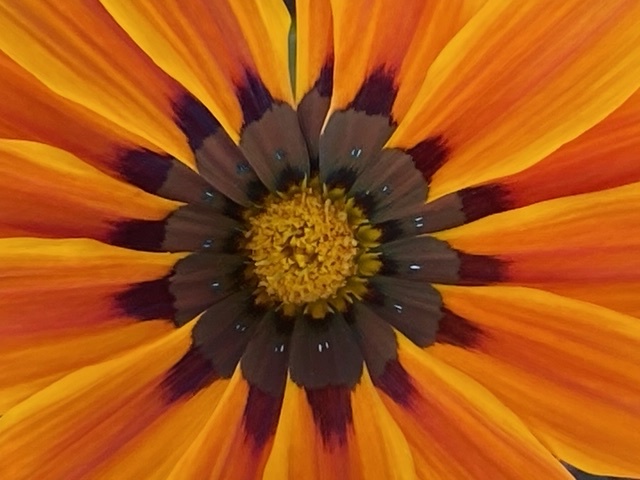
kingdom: Plantae
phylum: Tracheophyta
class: Magnoliopsida
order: Asterales
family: Asteraceae
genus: Gazania
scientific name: Gazania linearis
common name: Treasureflower
